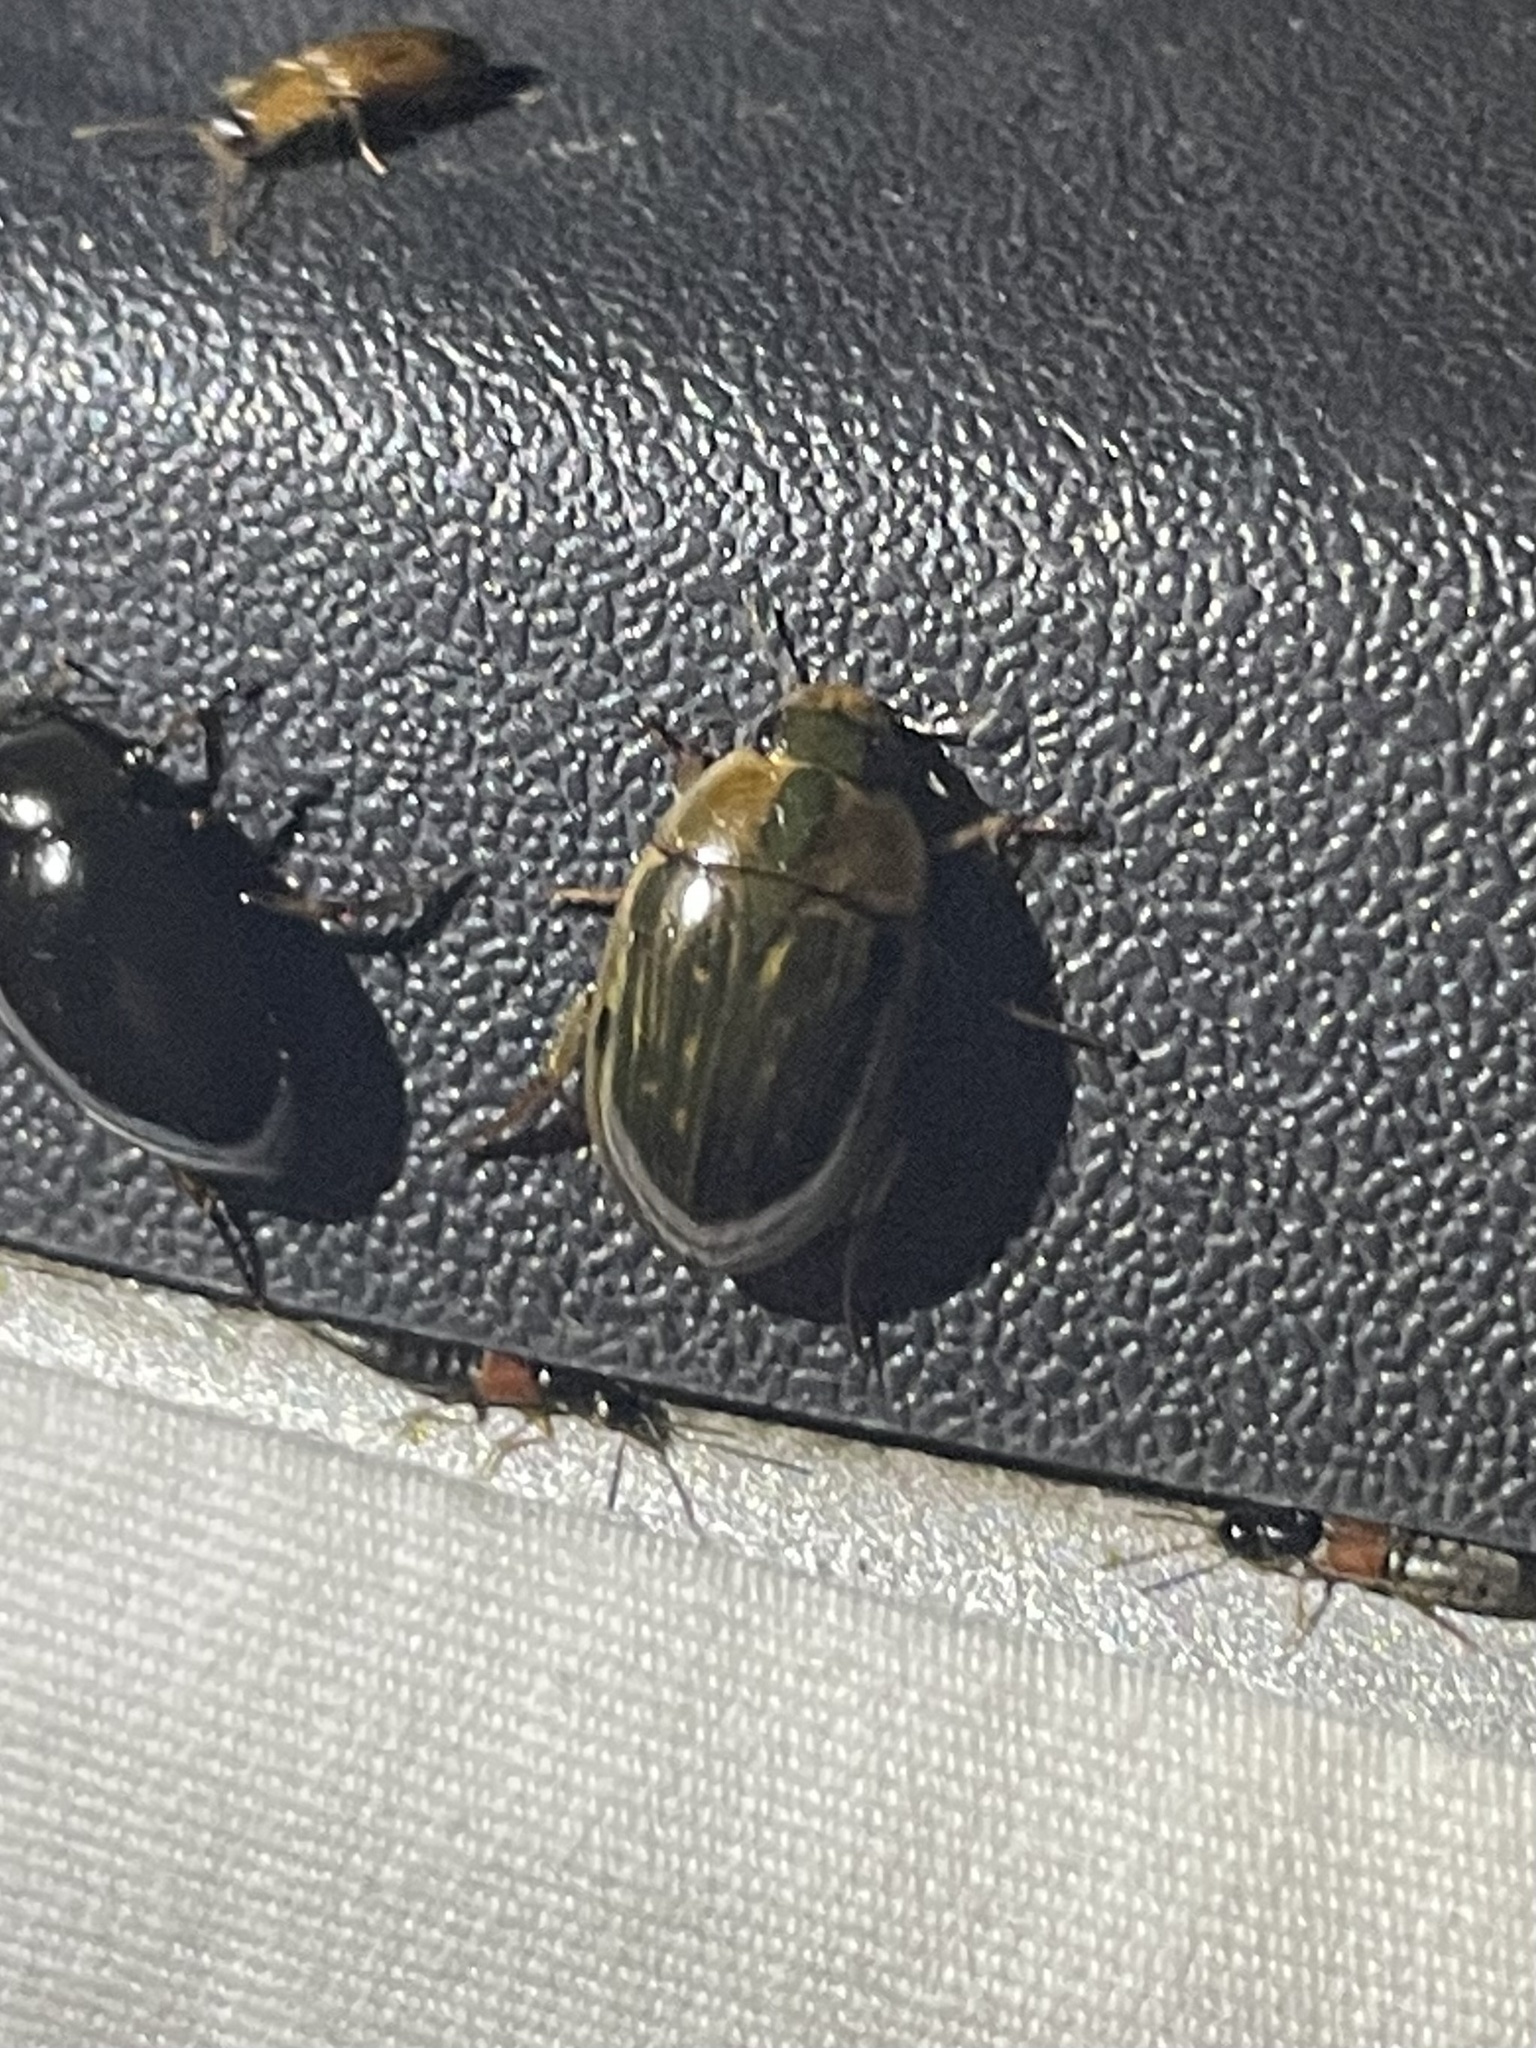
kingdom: Animalia
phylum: Arthropoda
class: Insecta
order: Coleoptera
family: Hydrophilidae
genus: Tropisternus
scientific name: Tropisternus collaris
